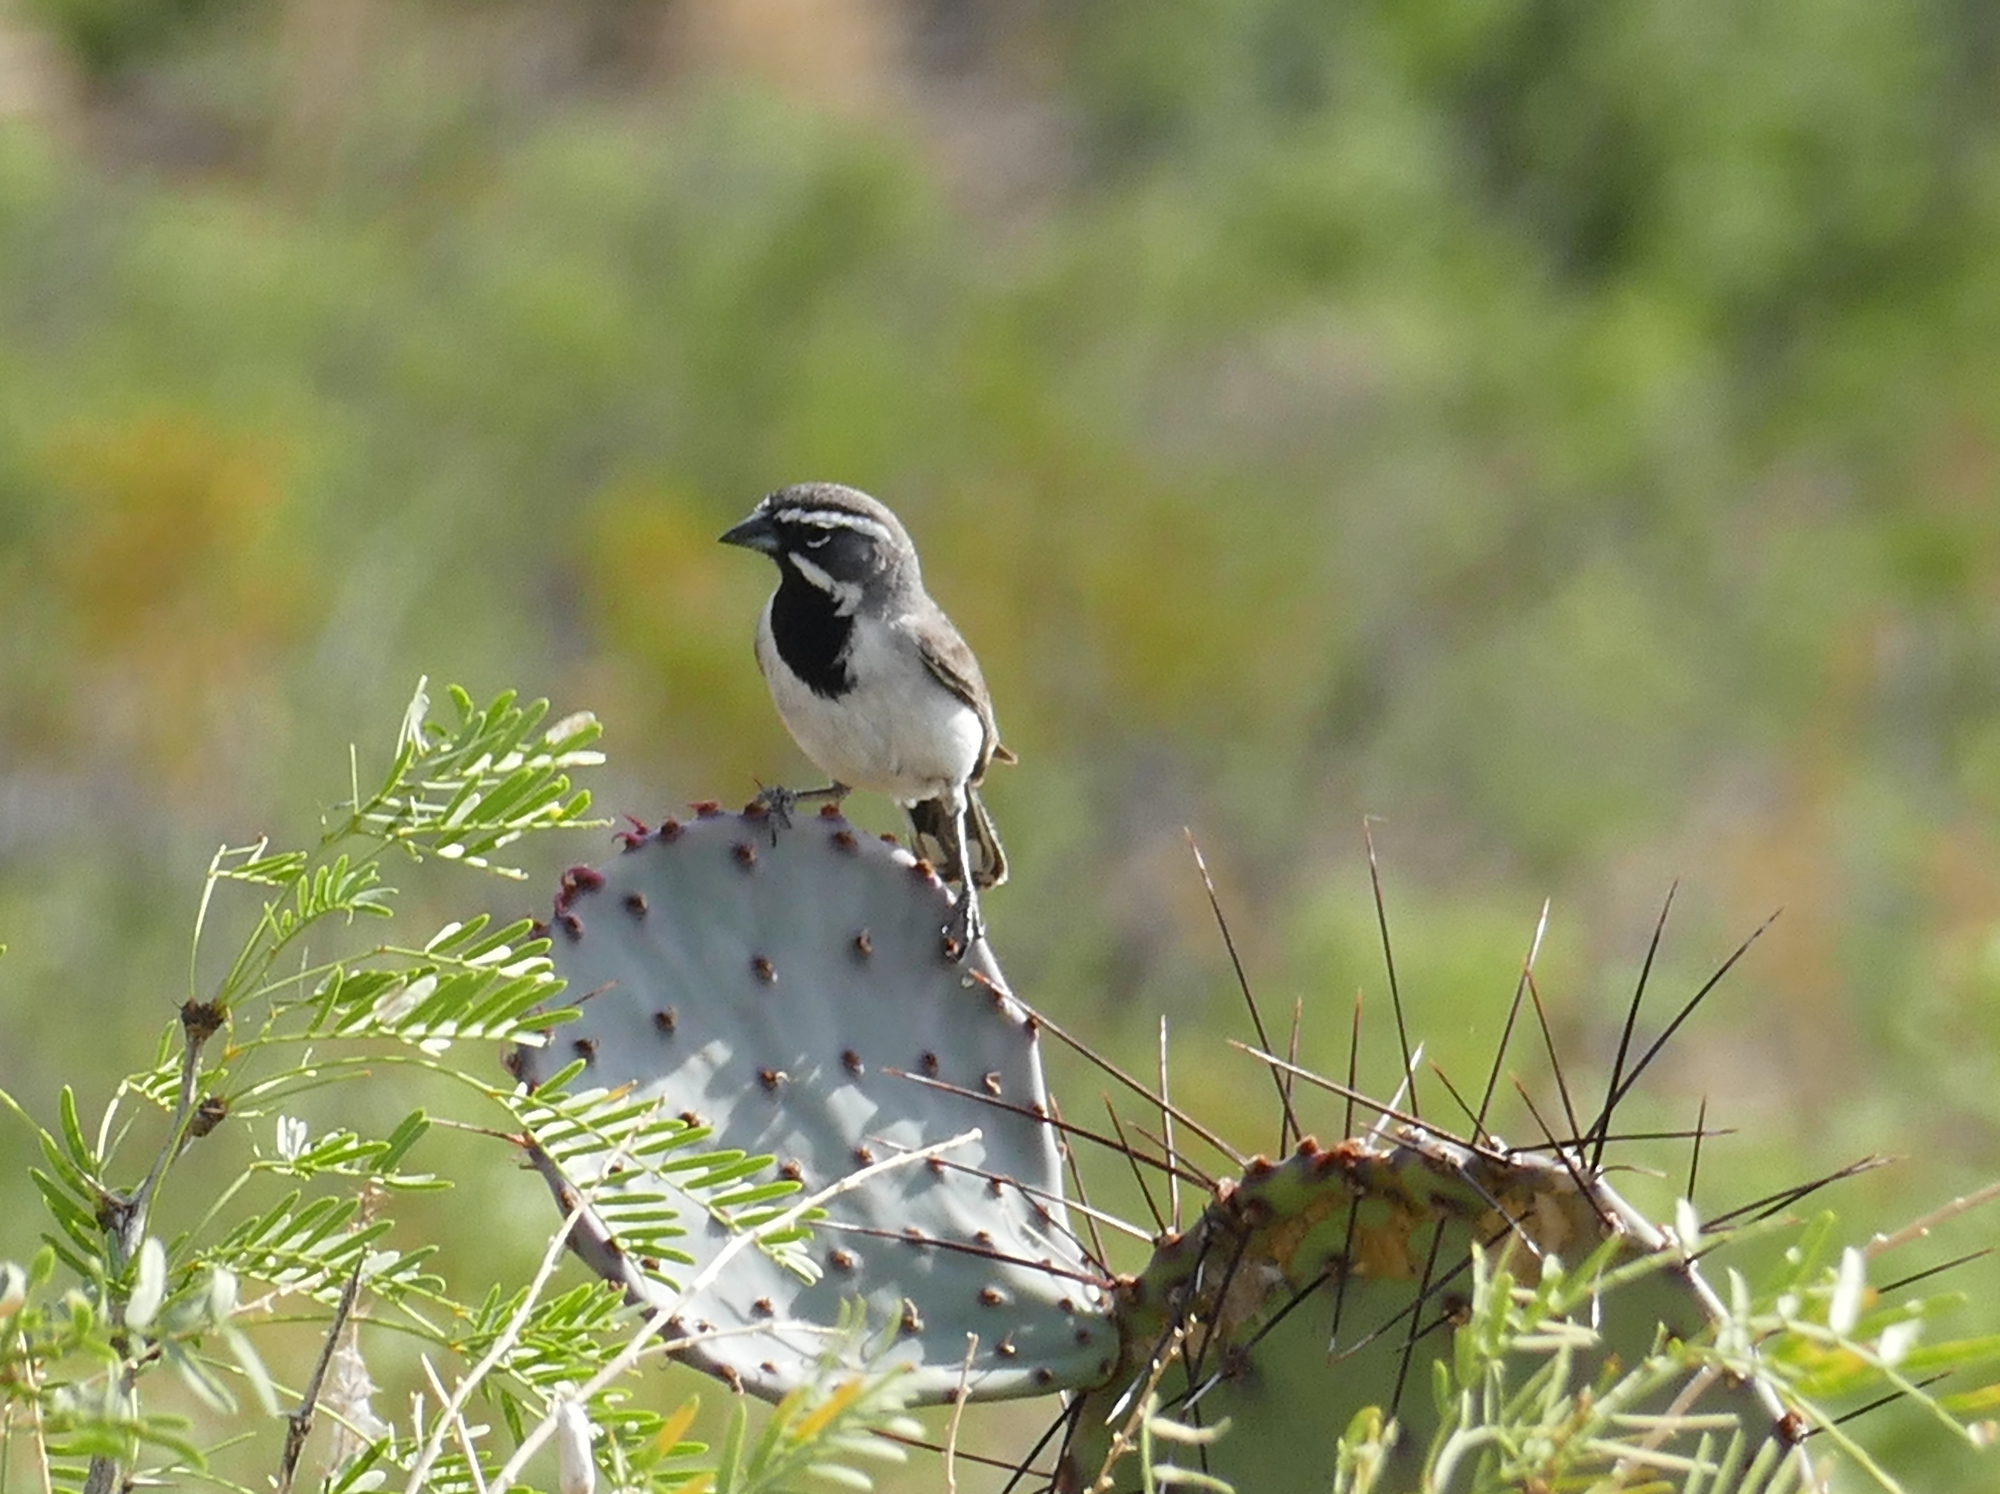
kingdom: Animalia
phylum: Chordata
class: Aves
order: Passeriformes
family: Passerellidae
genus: Amphispiza
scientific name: Amphispiza bilineata
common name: Black-throated sparrow
